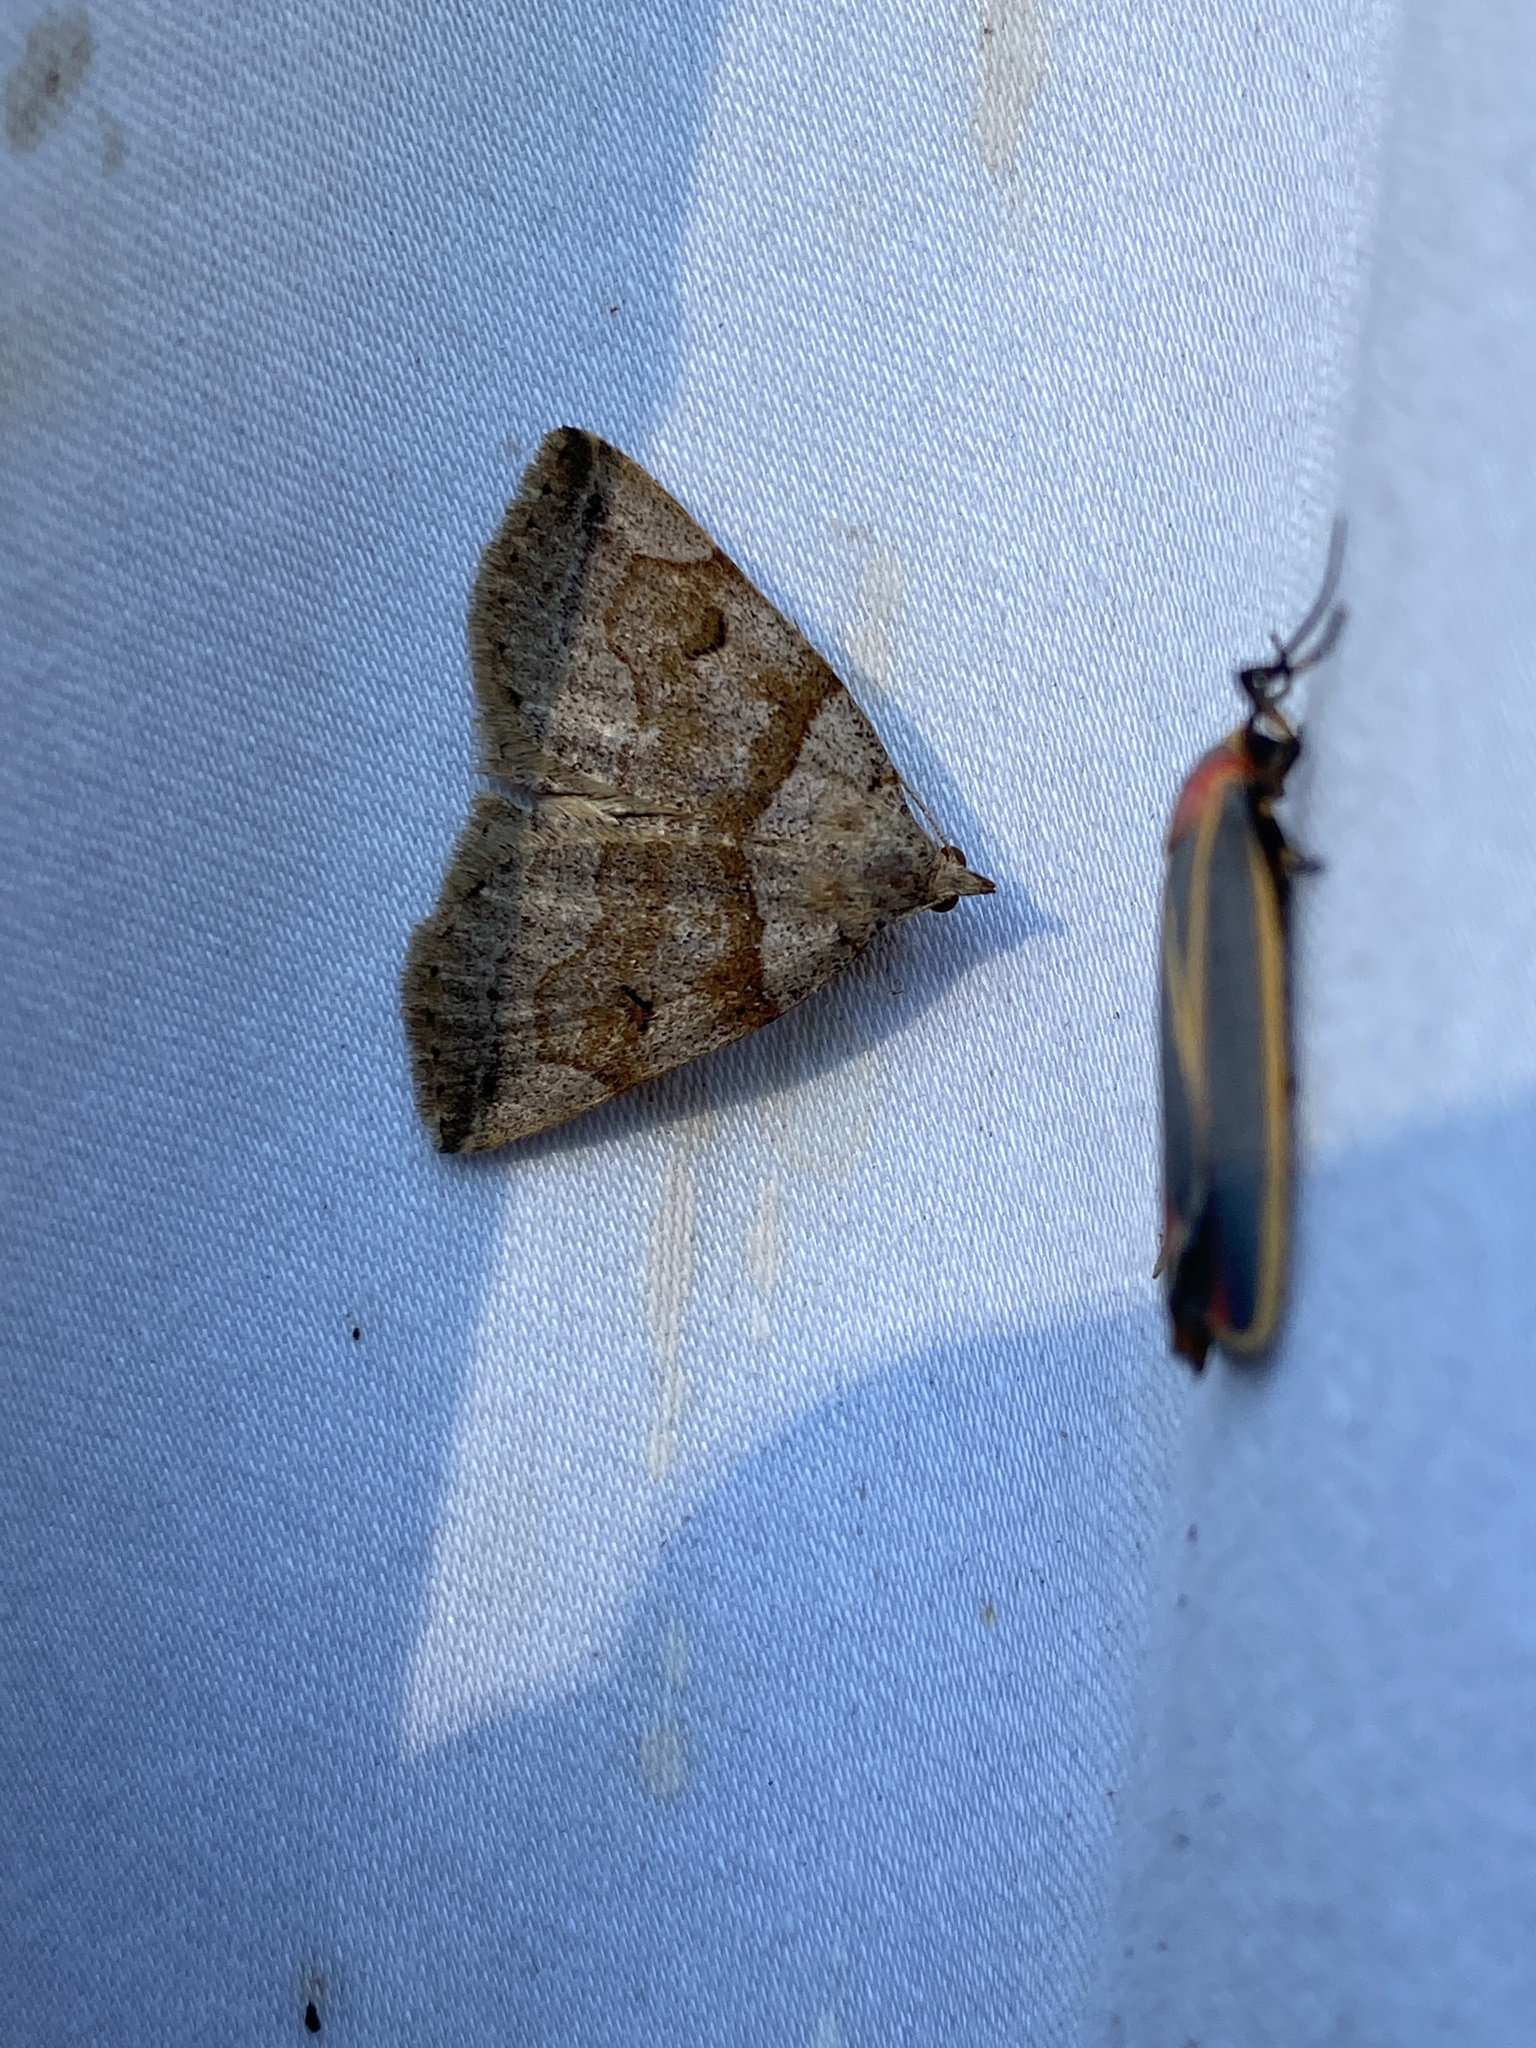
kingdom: Animalia
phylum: Arthropoda
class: Insecta
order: Lepidoptera
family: Erebidae
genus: Zanclognatha
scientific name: Zanclognatha laevigata
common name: Variable fan-foot
